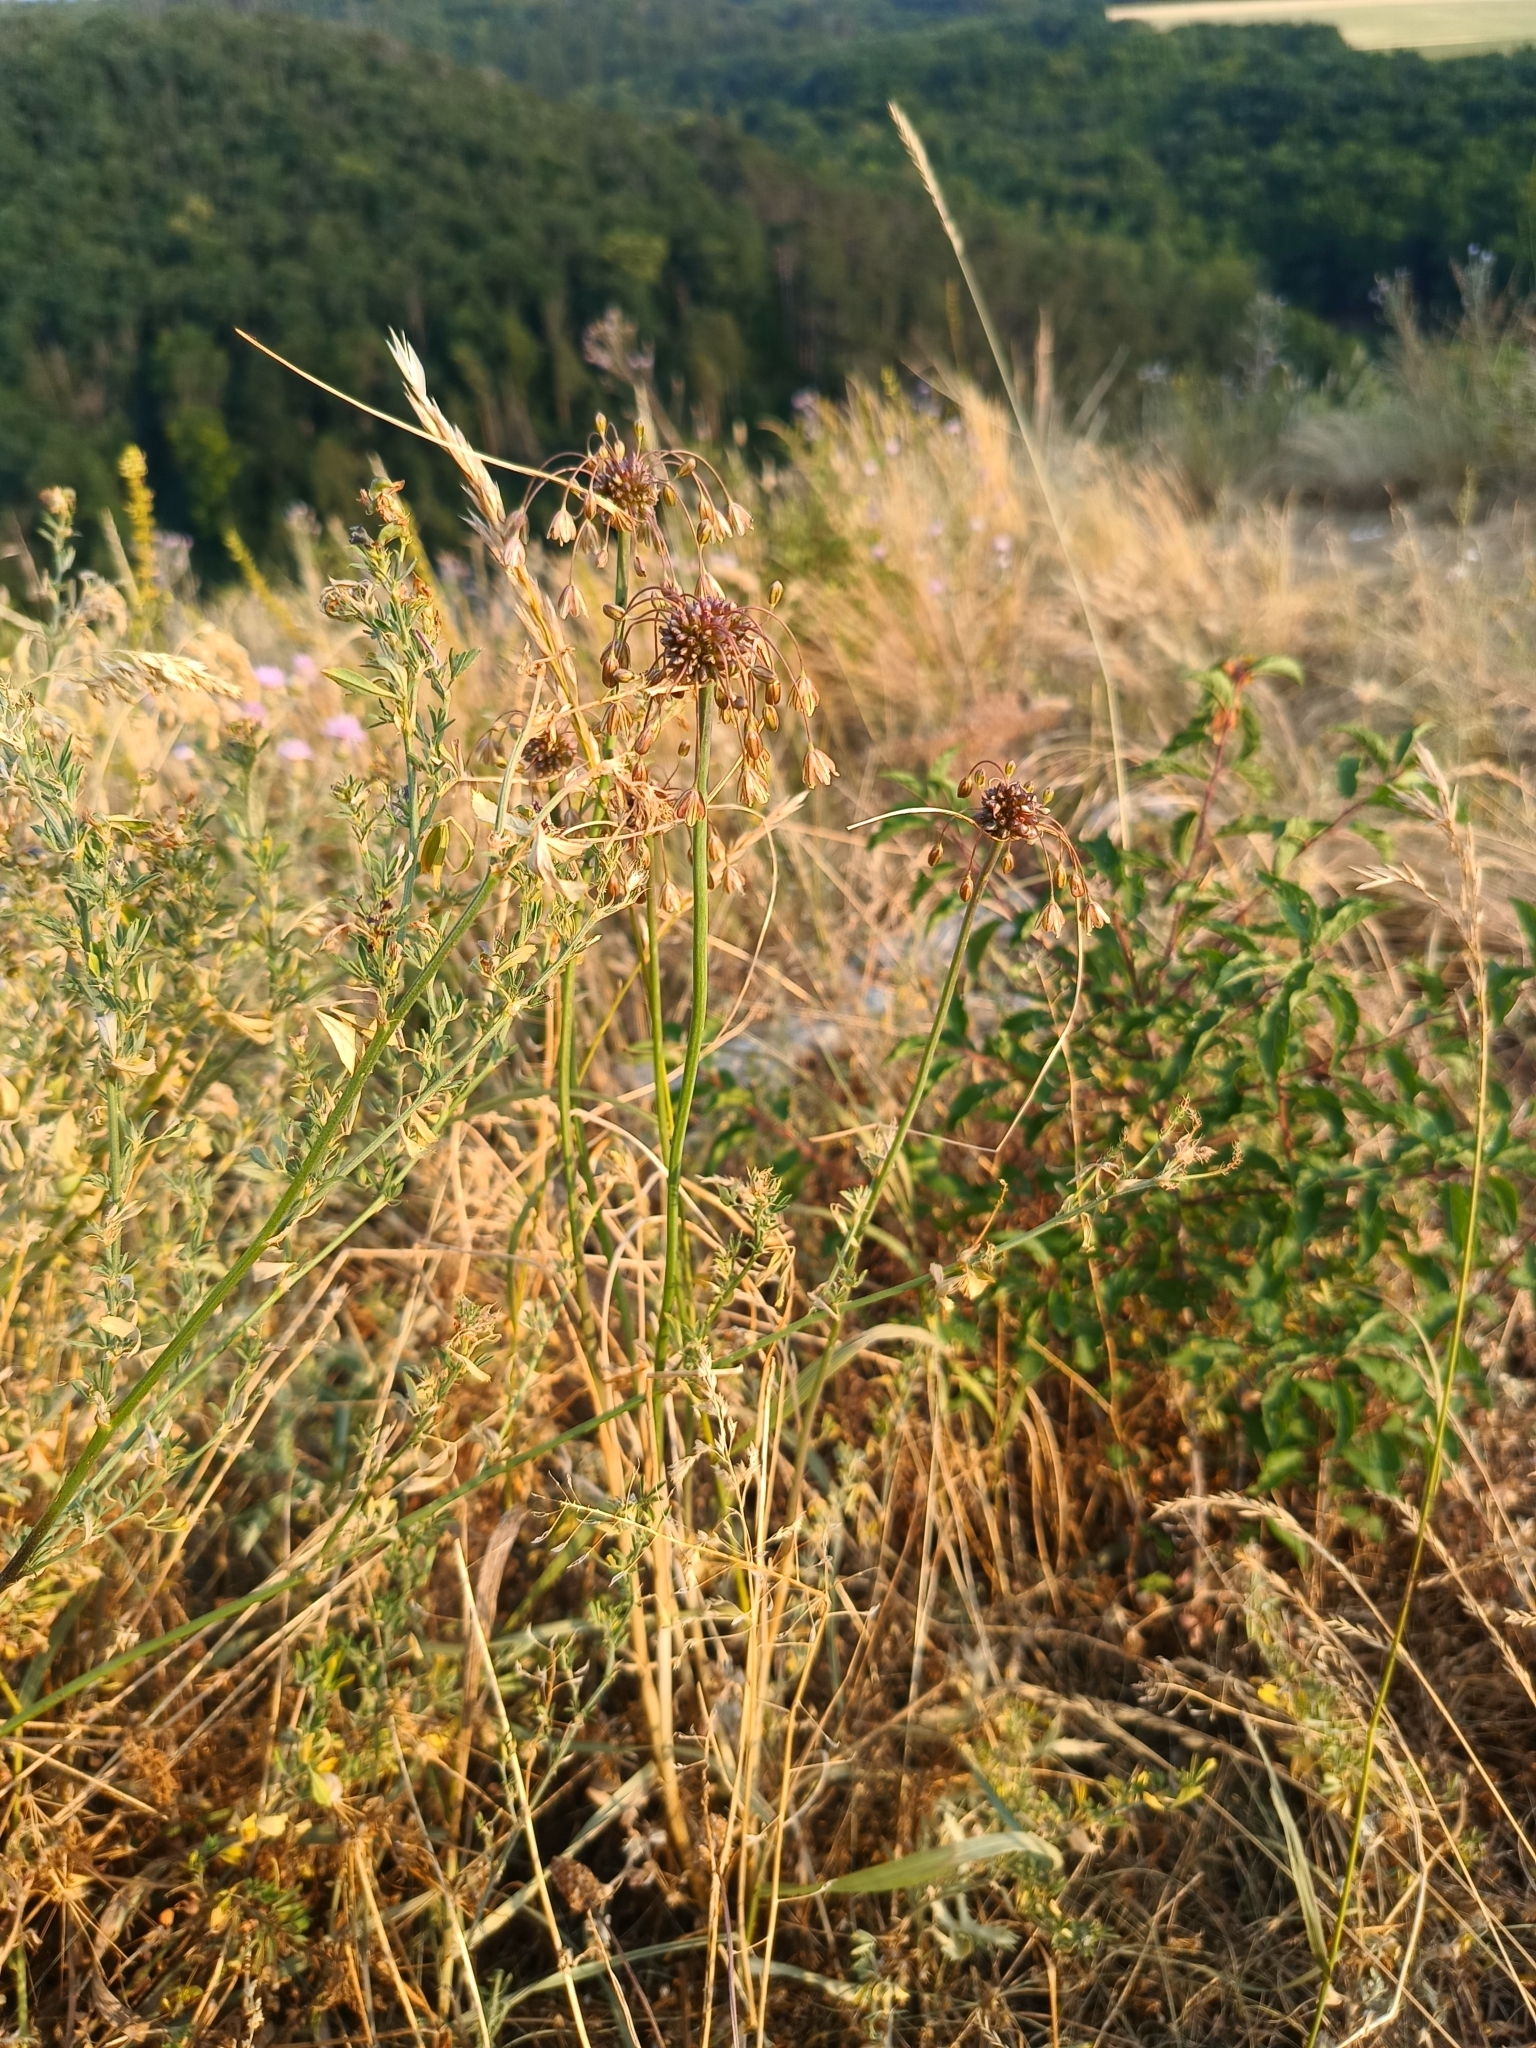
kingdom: Plantae
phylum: Tracheophyta
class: Liliopsida
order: Asparagales
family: Amaryllidaceae
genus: Allium
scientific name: Allium oleraceum
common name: Field garlic
